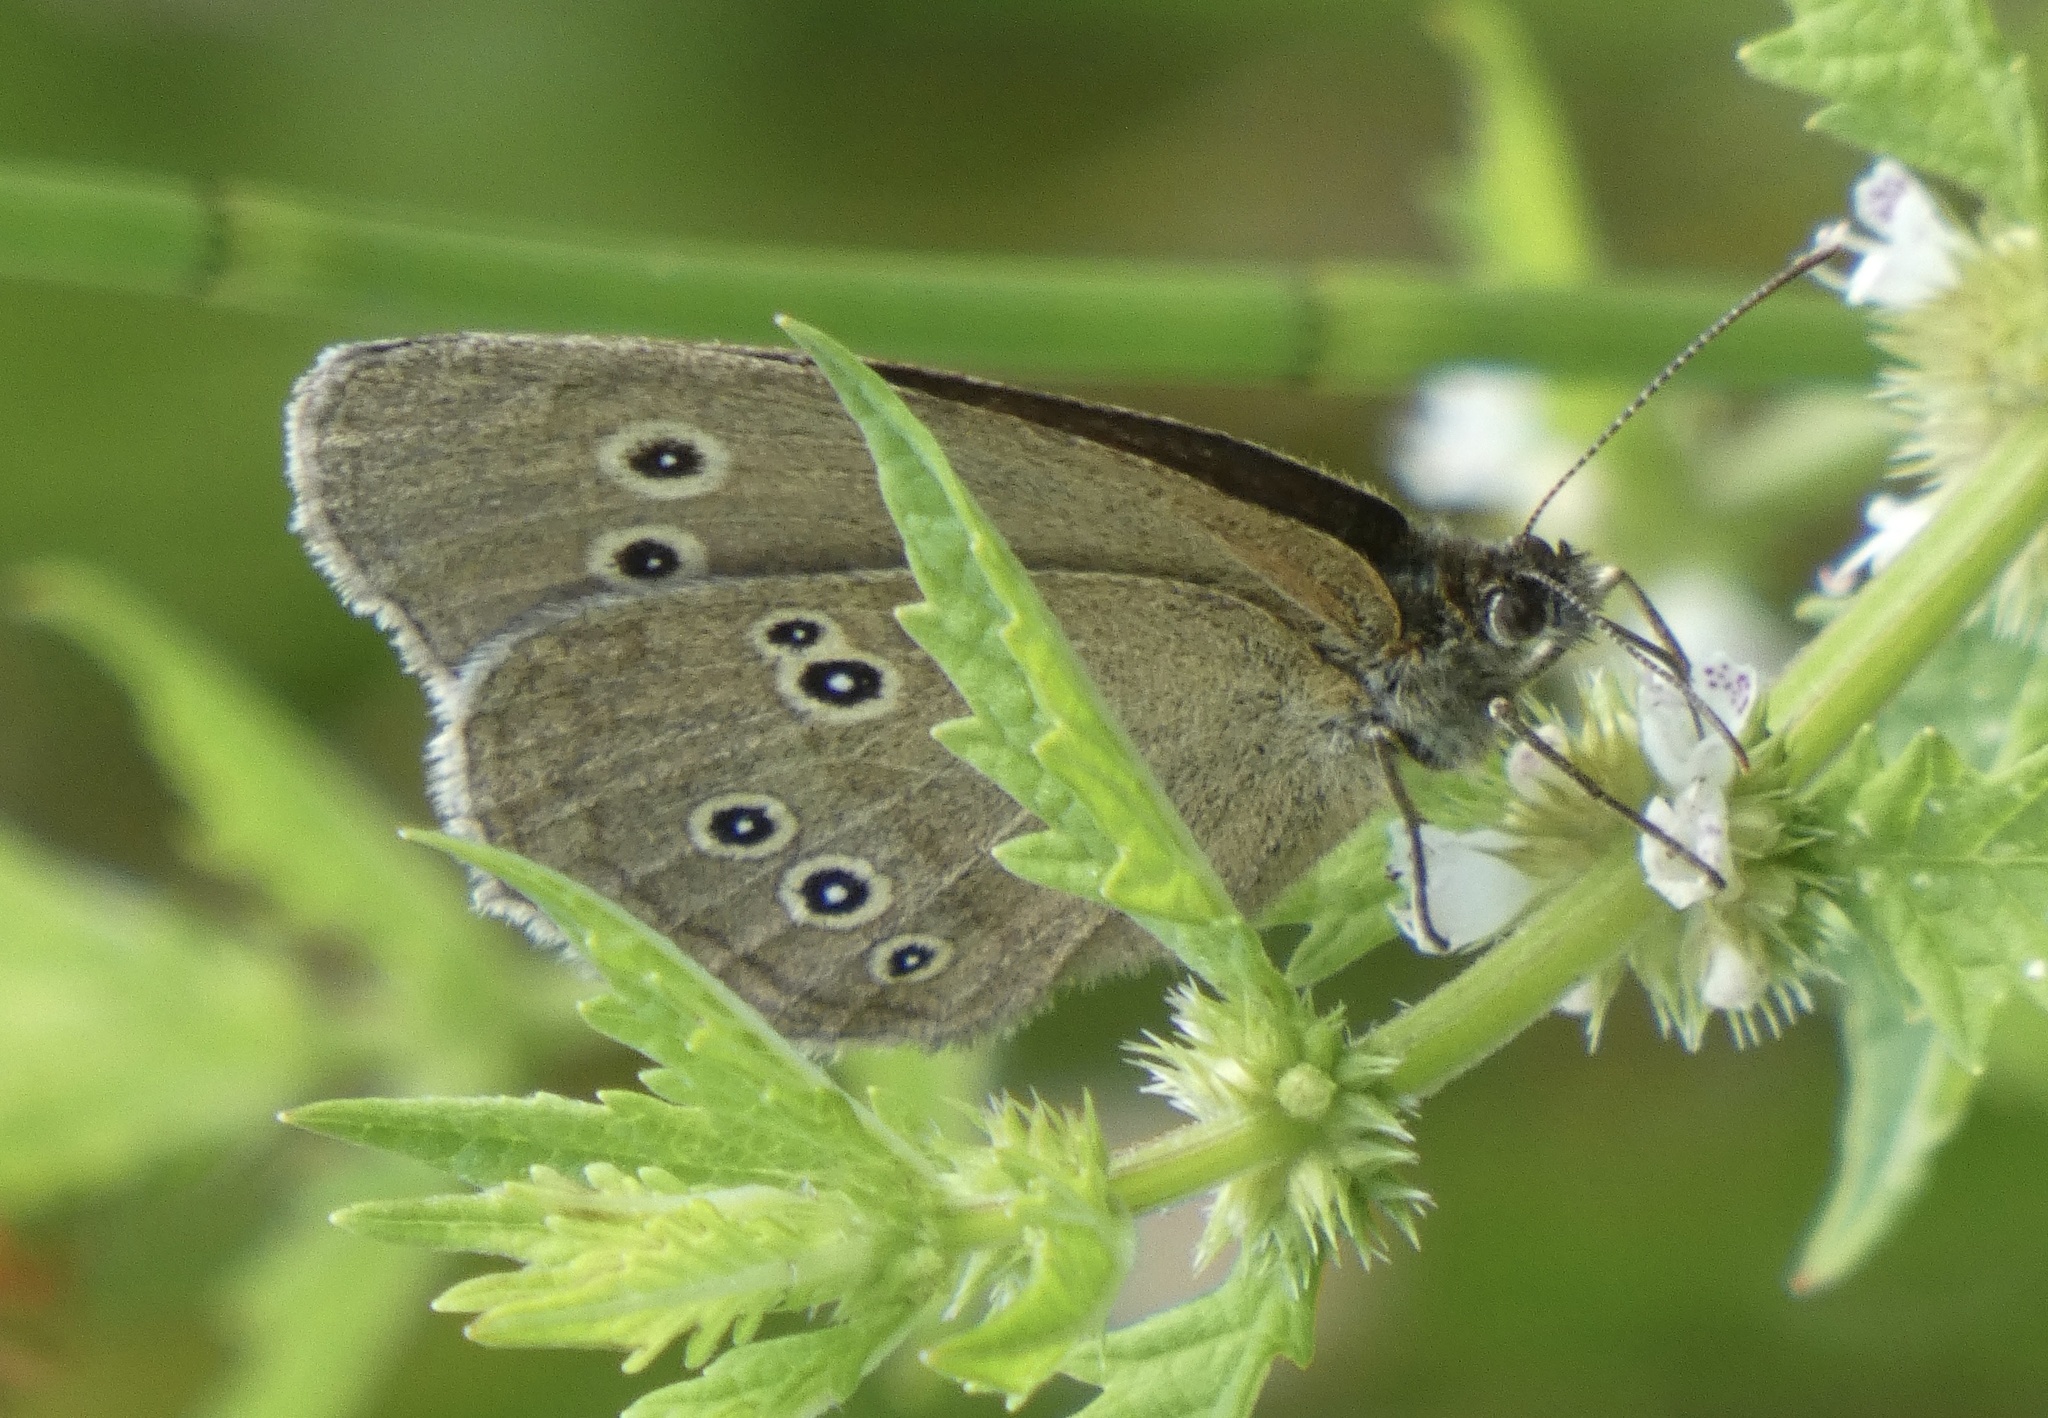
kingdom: Animalia
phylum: Arthropoda
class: Insecta
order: Lepidoptera
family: Nymphalidae
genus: Aphantopus
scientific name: Aphantopus hyperantus
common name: Ringlet
